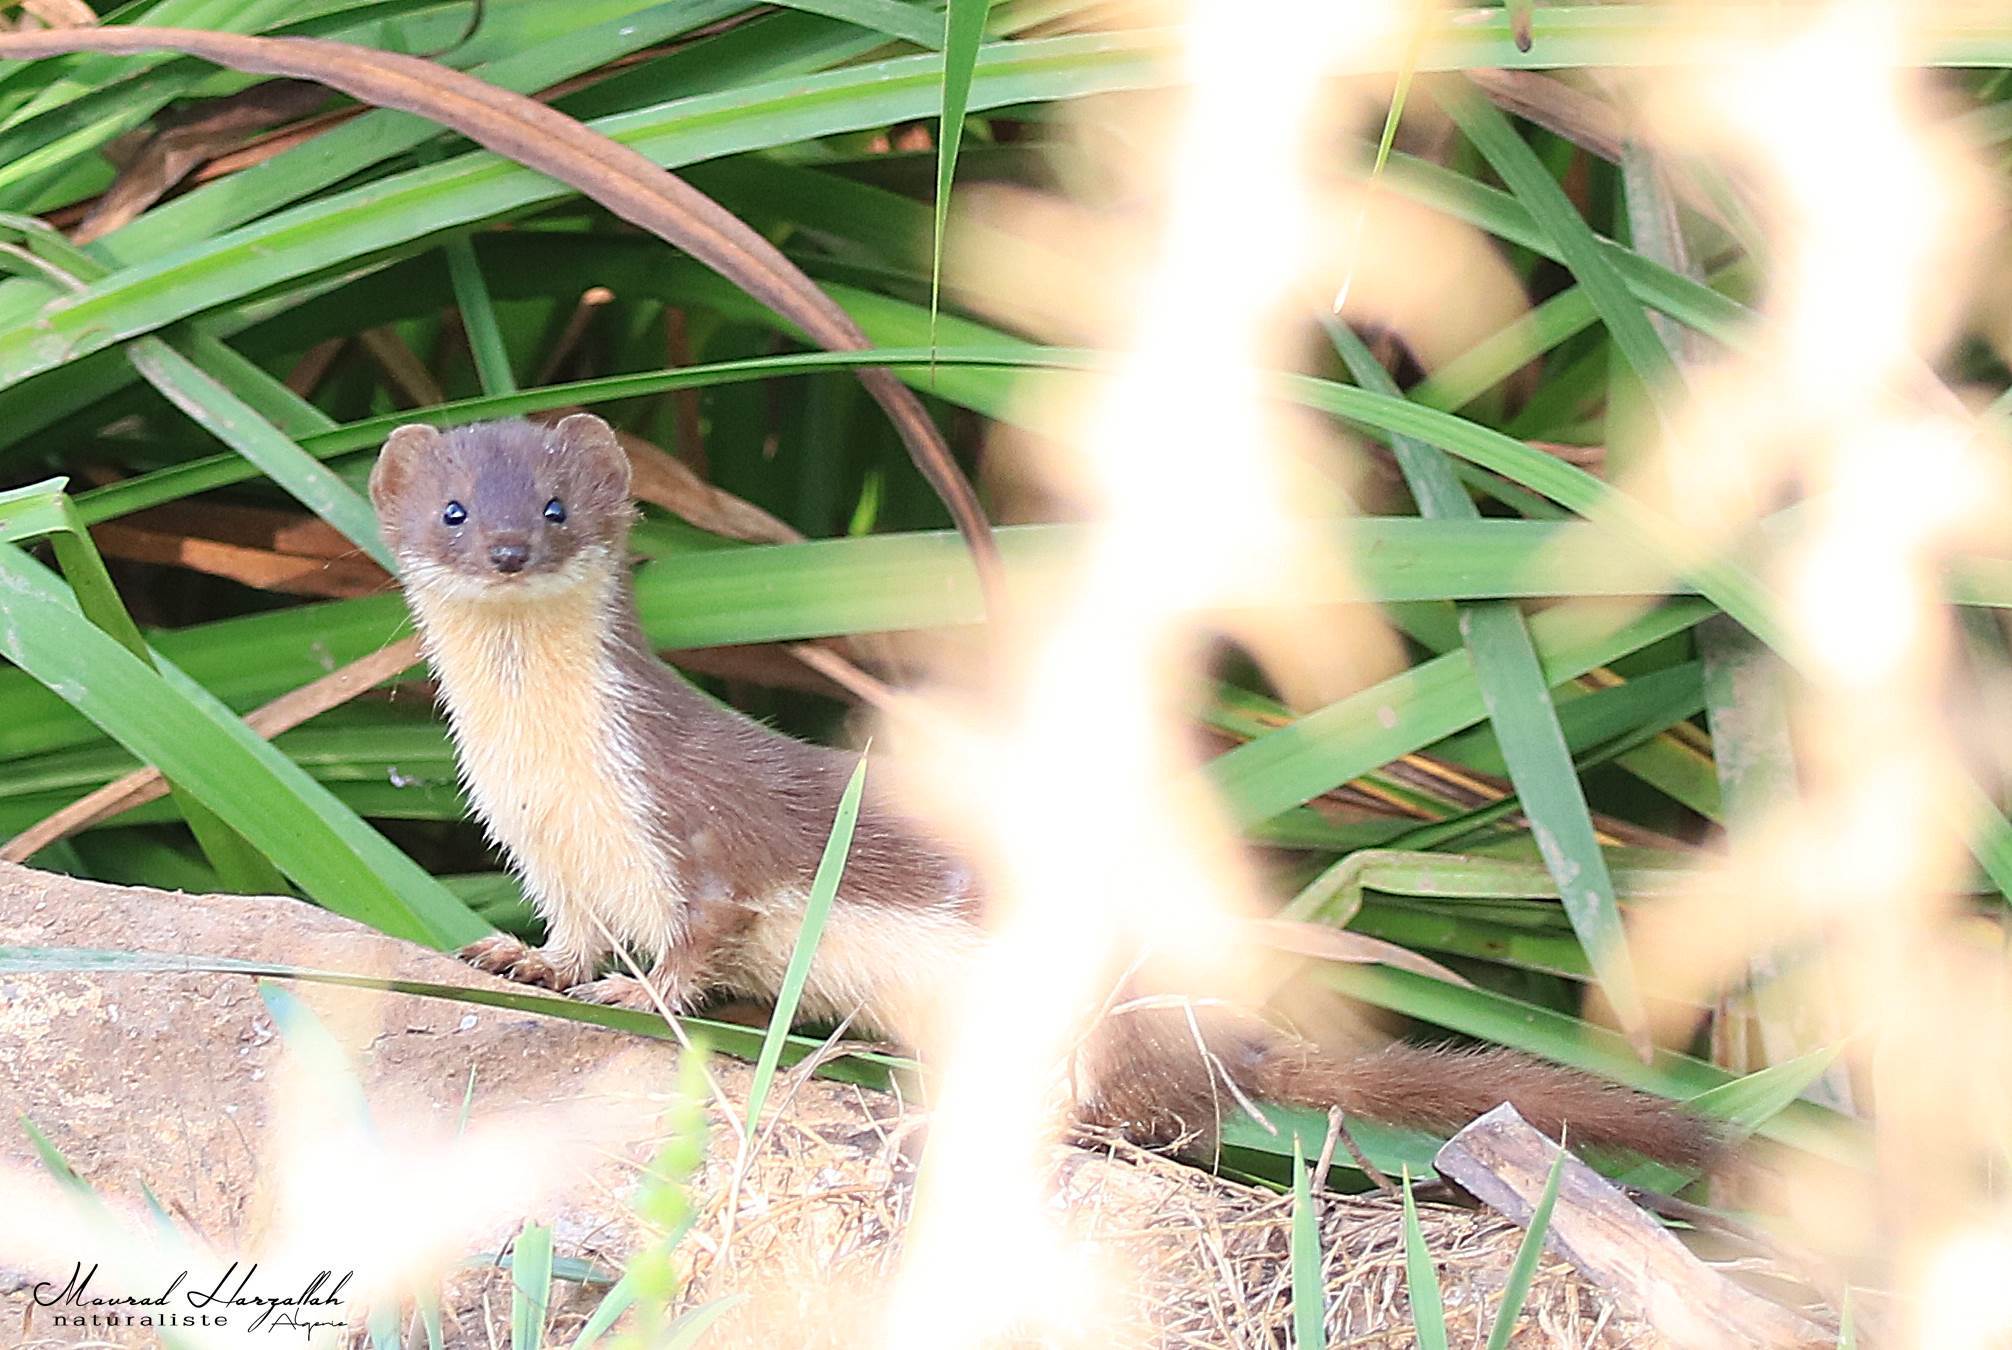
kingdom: Animalia
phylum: Chordata
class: Mammalia
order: Carnivora
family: Mustelidae
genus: Mustela
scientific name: Mustela nivalis
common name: Least weasel
